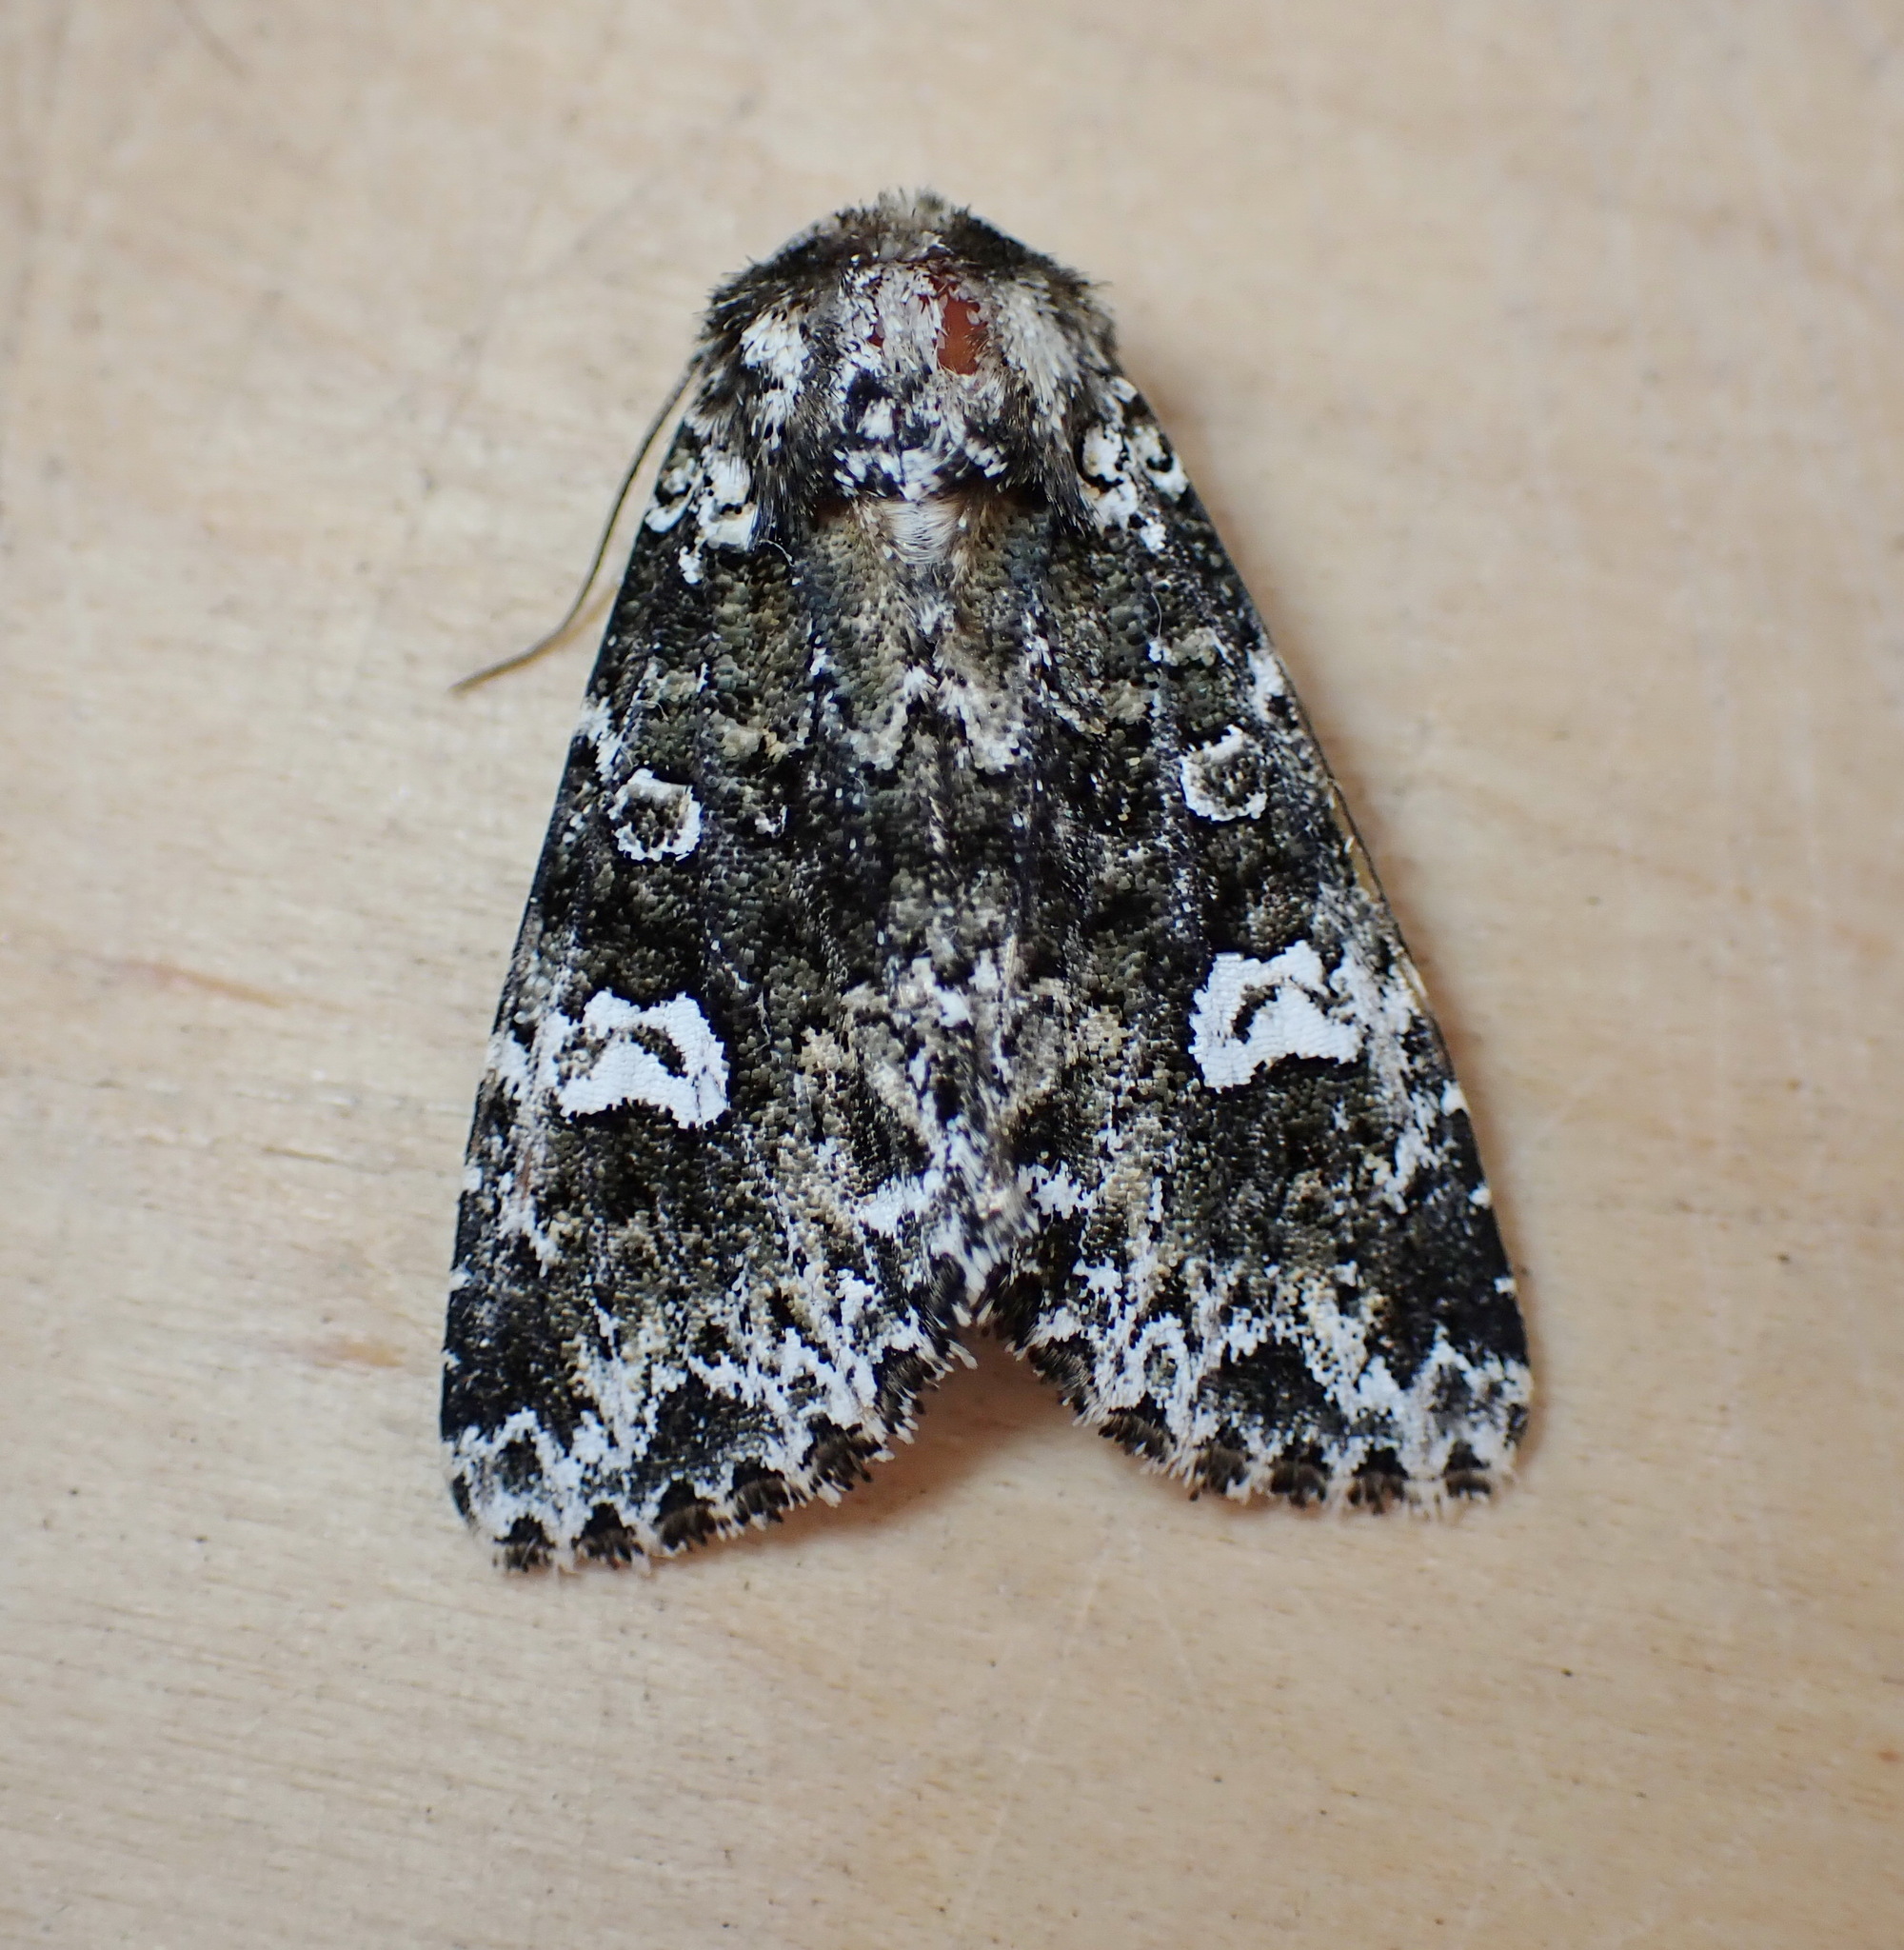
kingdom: Animalia
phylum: Arthropoda
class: Insecta
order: Lepidoptera
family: Noctuidae
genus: Melanchra
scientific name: Melanchra adjuncta
